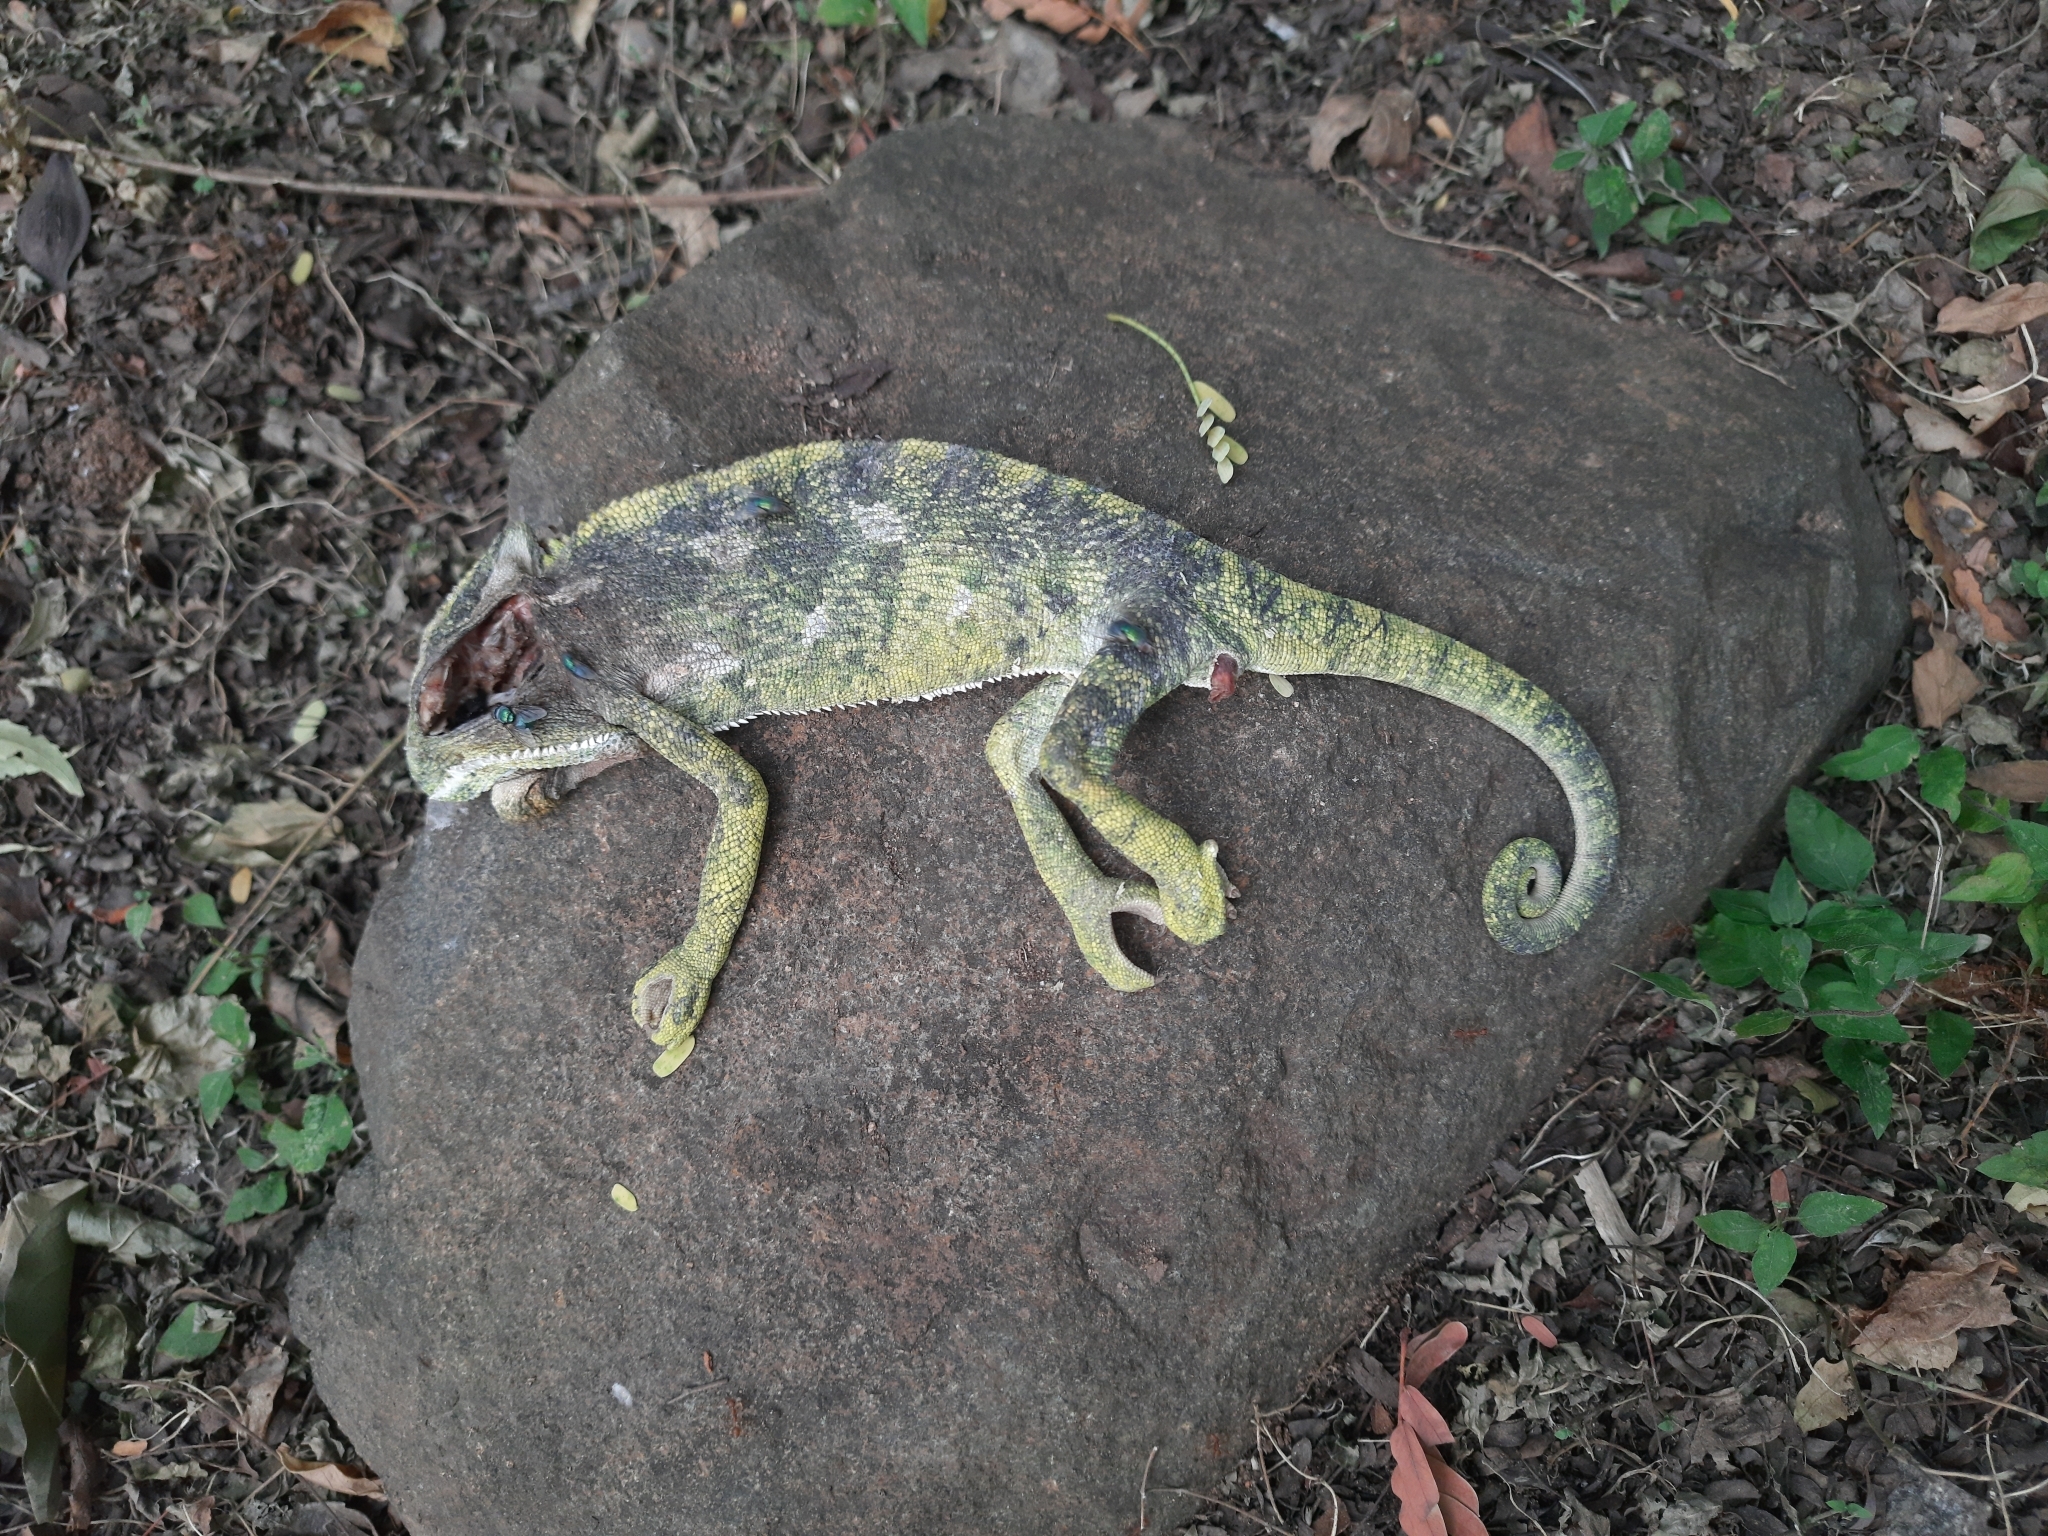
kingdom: Animalia
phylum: Chordata
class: Squamata
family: Chamaeleonidae
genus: Chamaeleo
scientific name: Chamaeleo zeylanicus
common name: Indian chameleon
